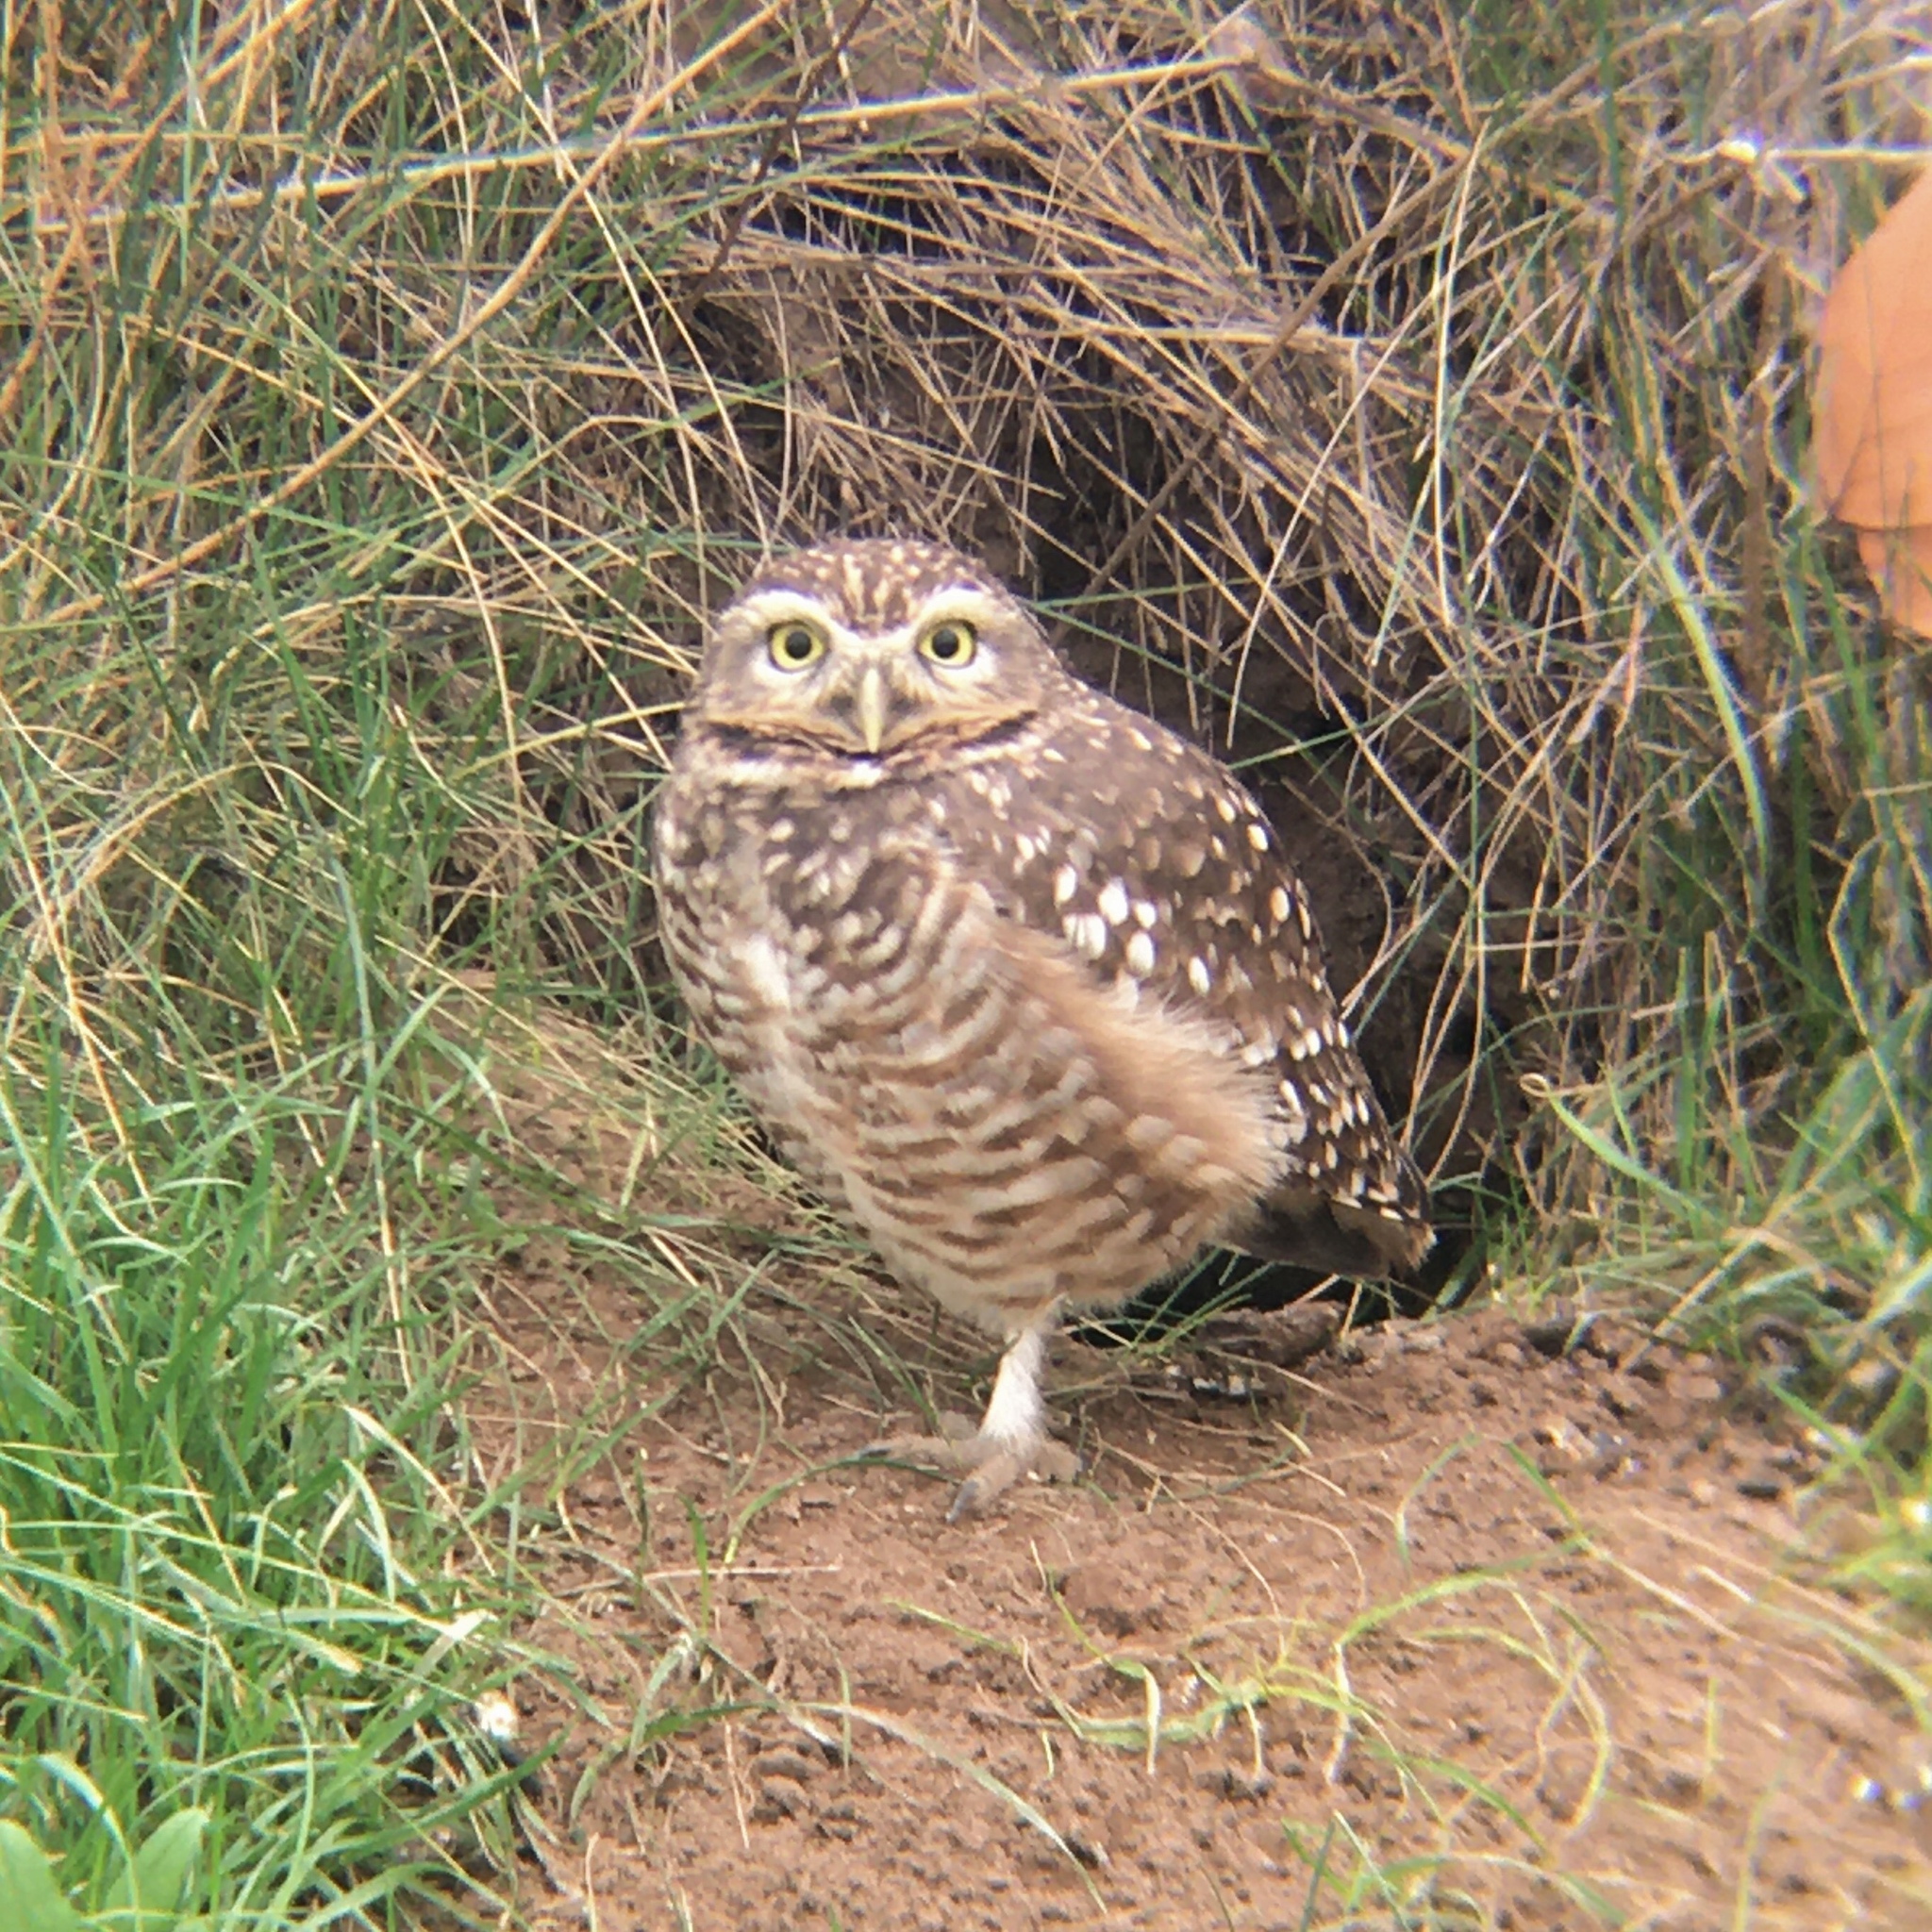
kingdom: Animalia
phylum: Chordata
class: Aves
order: Strigiformes
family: Strigidae
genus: Athene
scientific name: Athene cunicularia
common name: Burrowing owl
